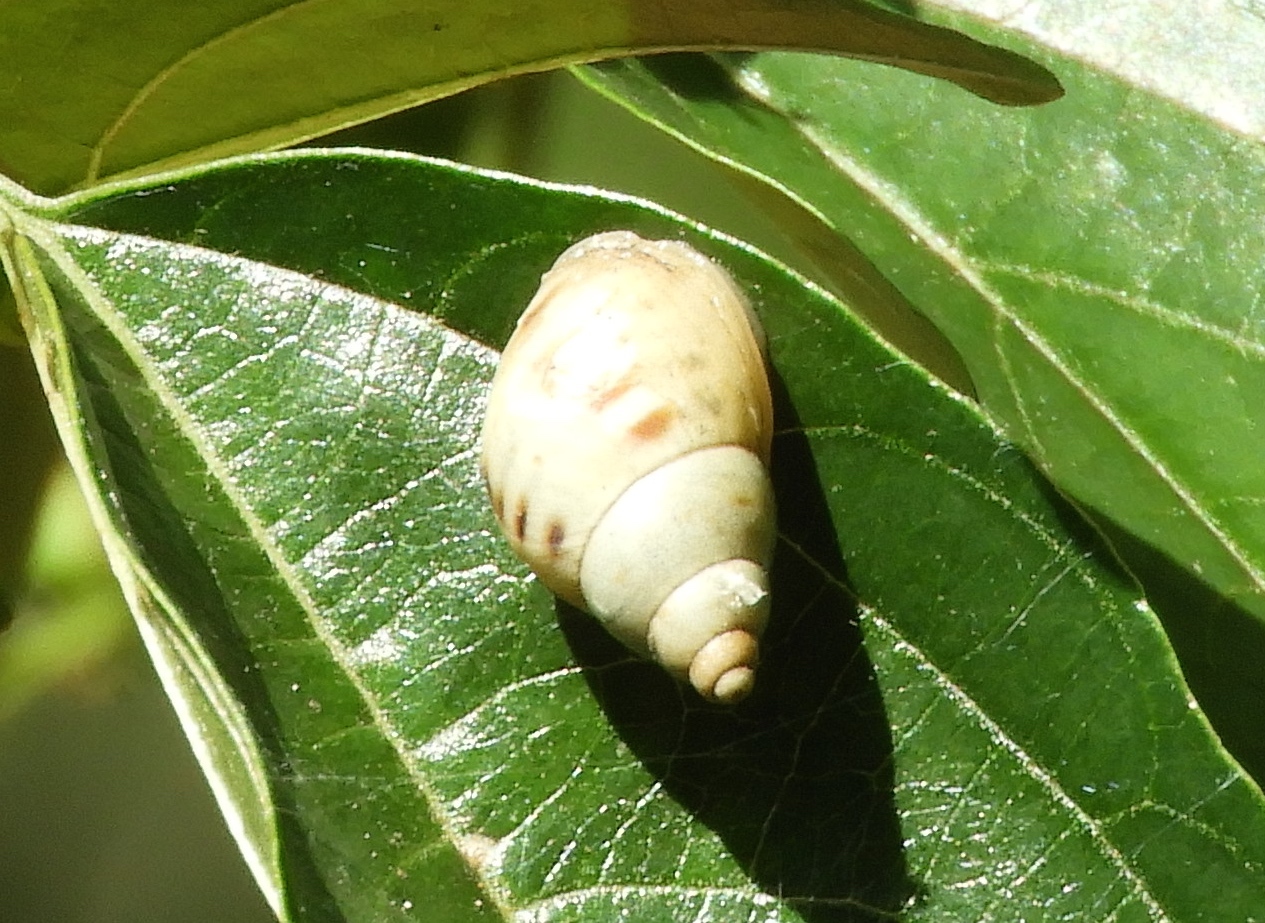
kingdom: Animalia
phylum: Mollusca
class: Gastropoda
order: Stylommatophora
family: Bulimulidae
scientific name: Bulimulidae
